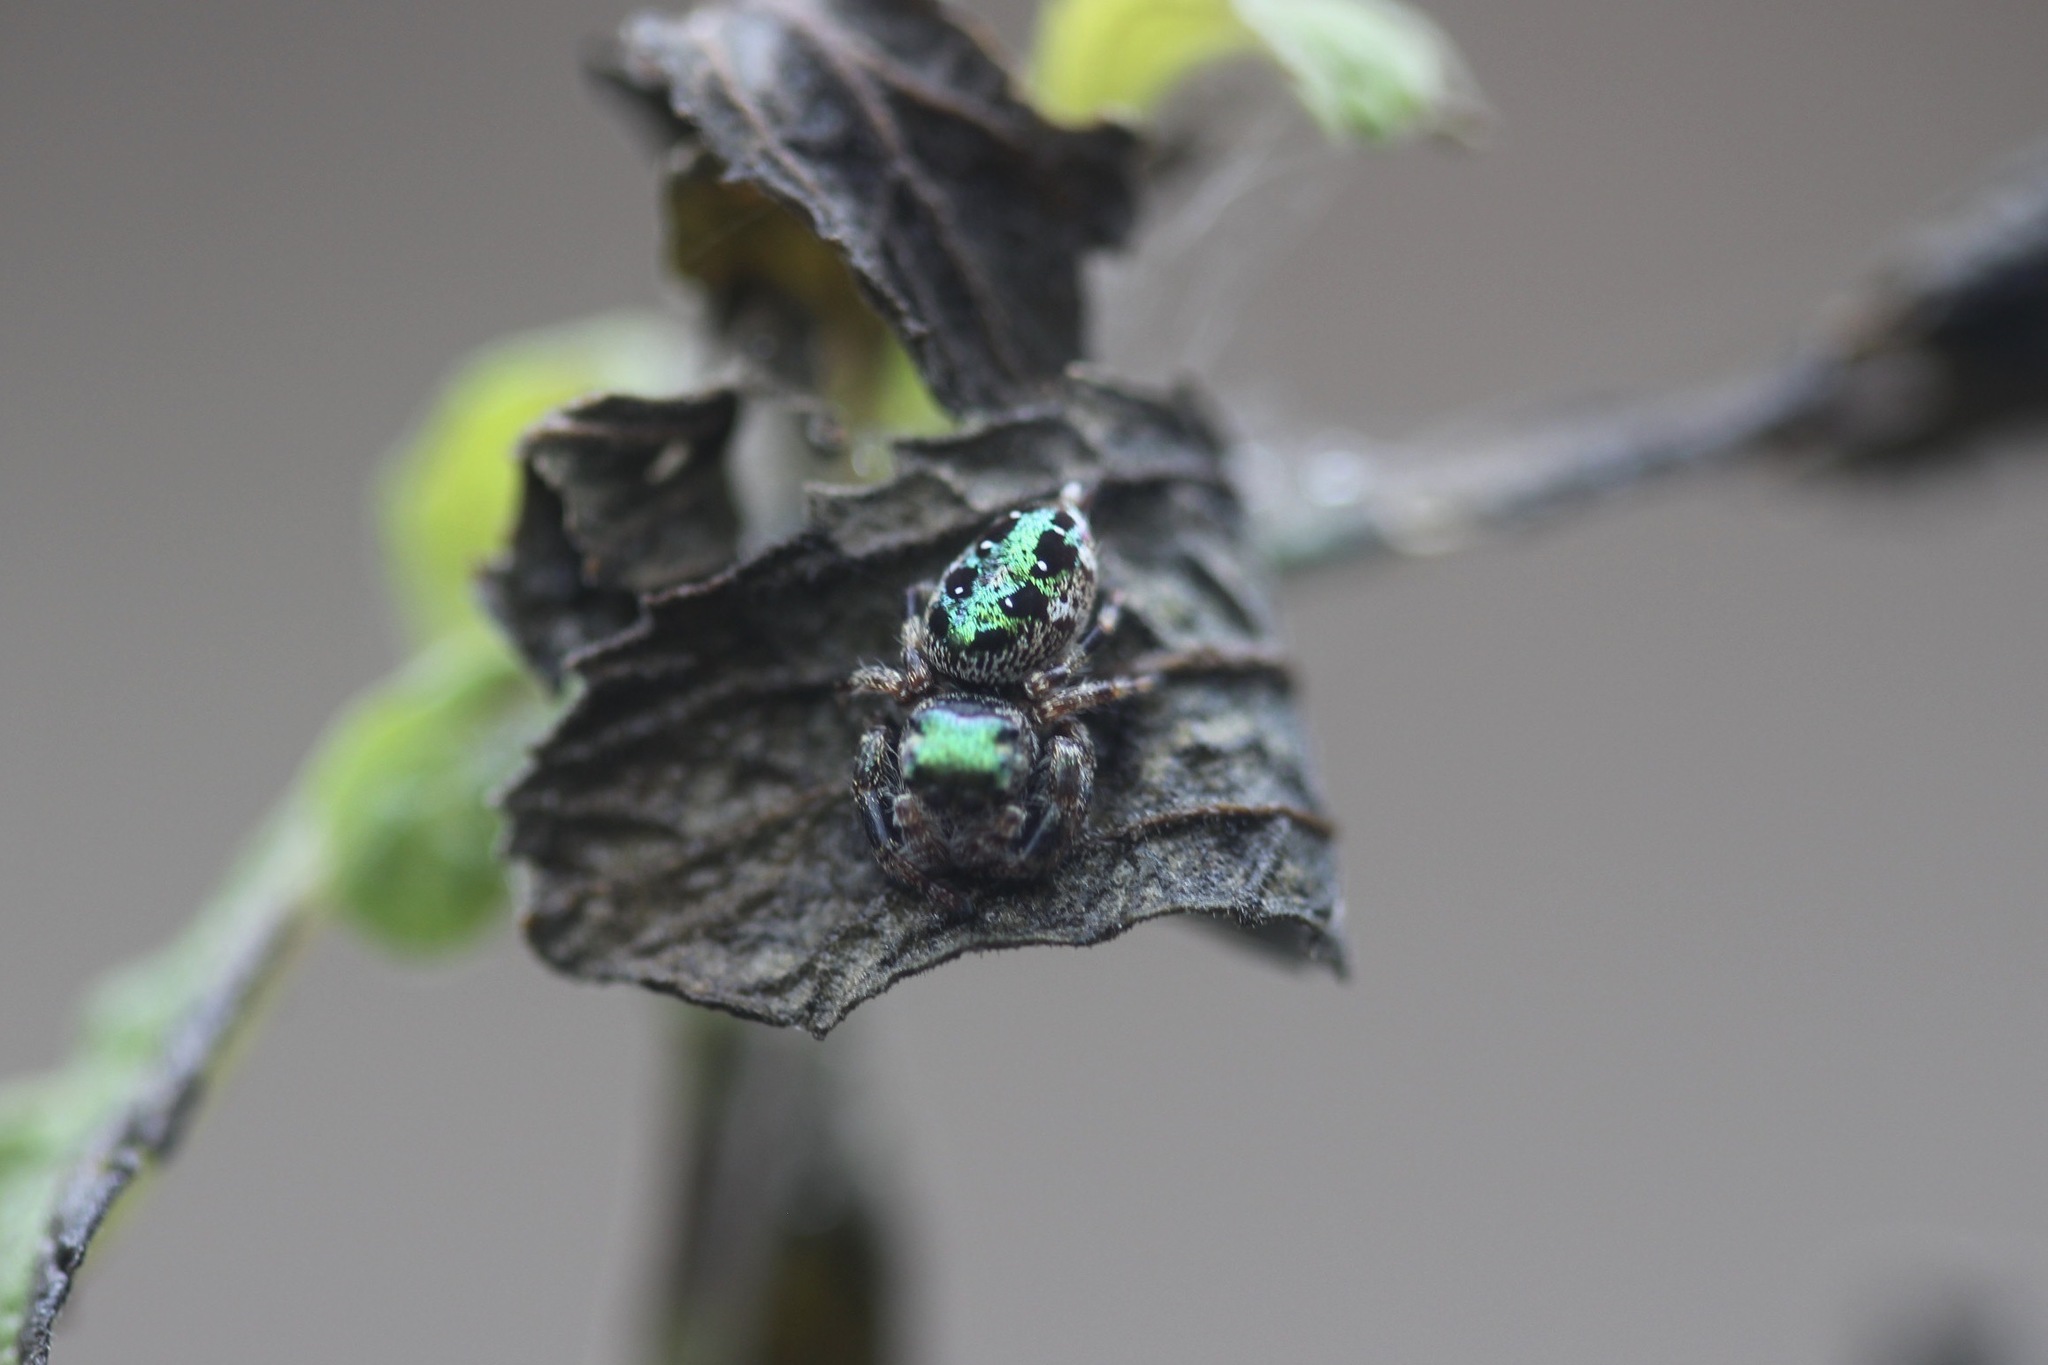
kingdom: Animalia
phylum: Arthropoda
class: Arachnida
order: Araneae
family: Salticidae
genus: Parnaenus
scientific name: Parnaenus cyanidens
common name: Jumping spiders
